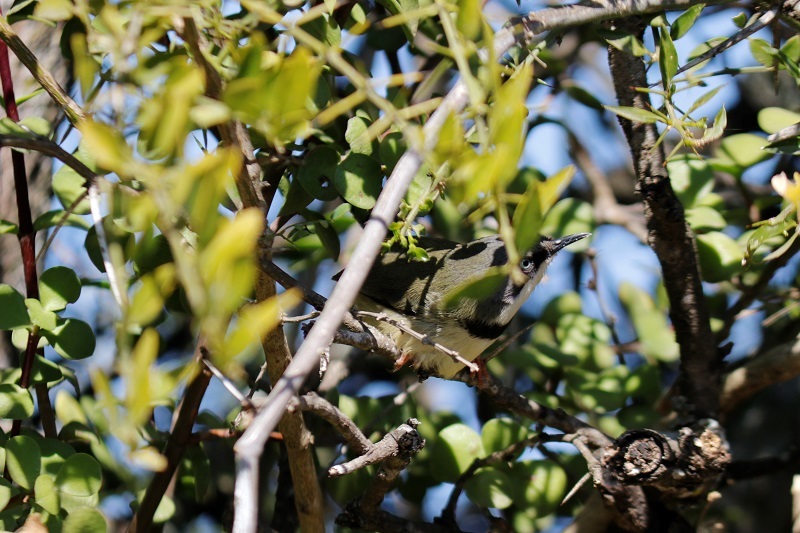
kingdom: Animalia
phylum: Chordata
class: Aves
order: Passeriformes
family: Cisticolidae
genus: Apalis
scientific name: Apalis thoracica
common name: Bar-throated apalis
